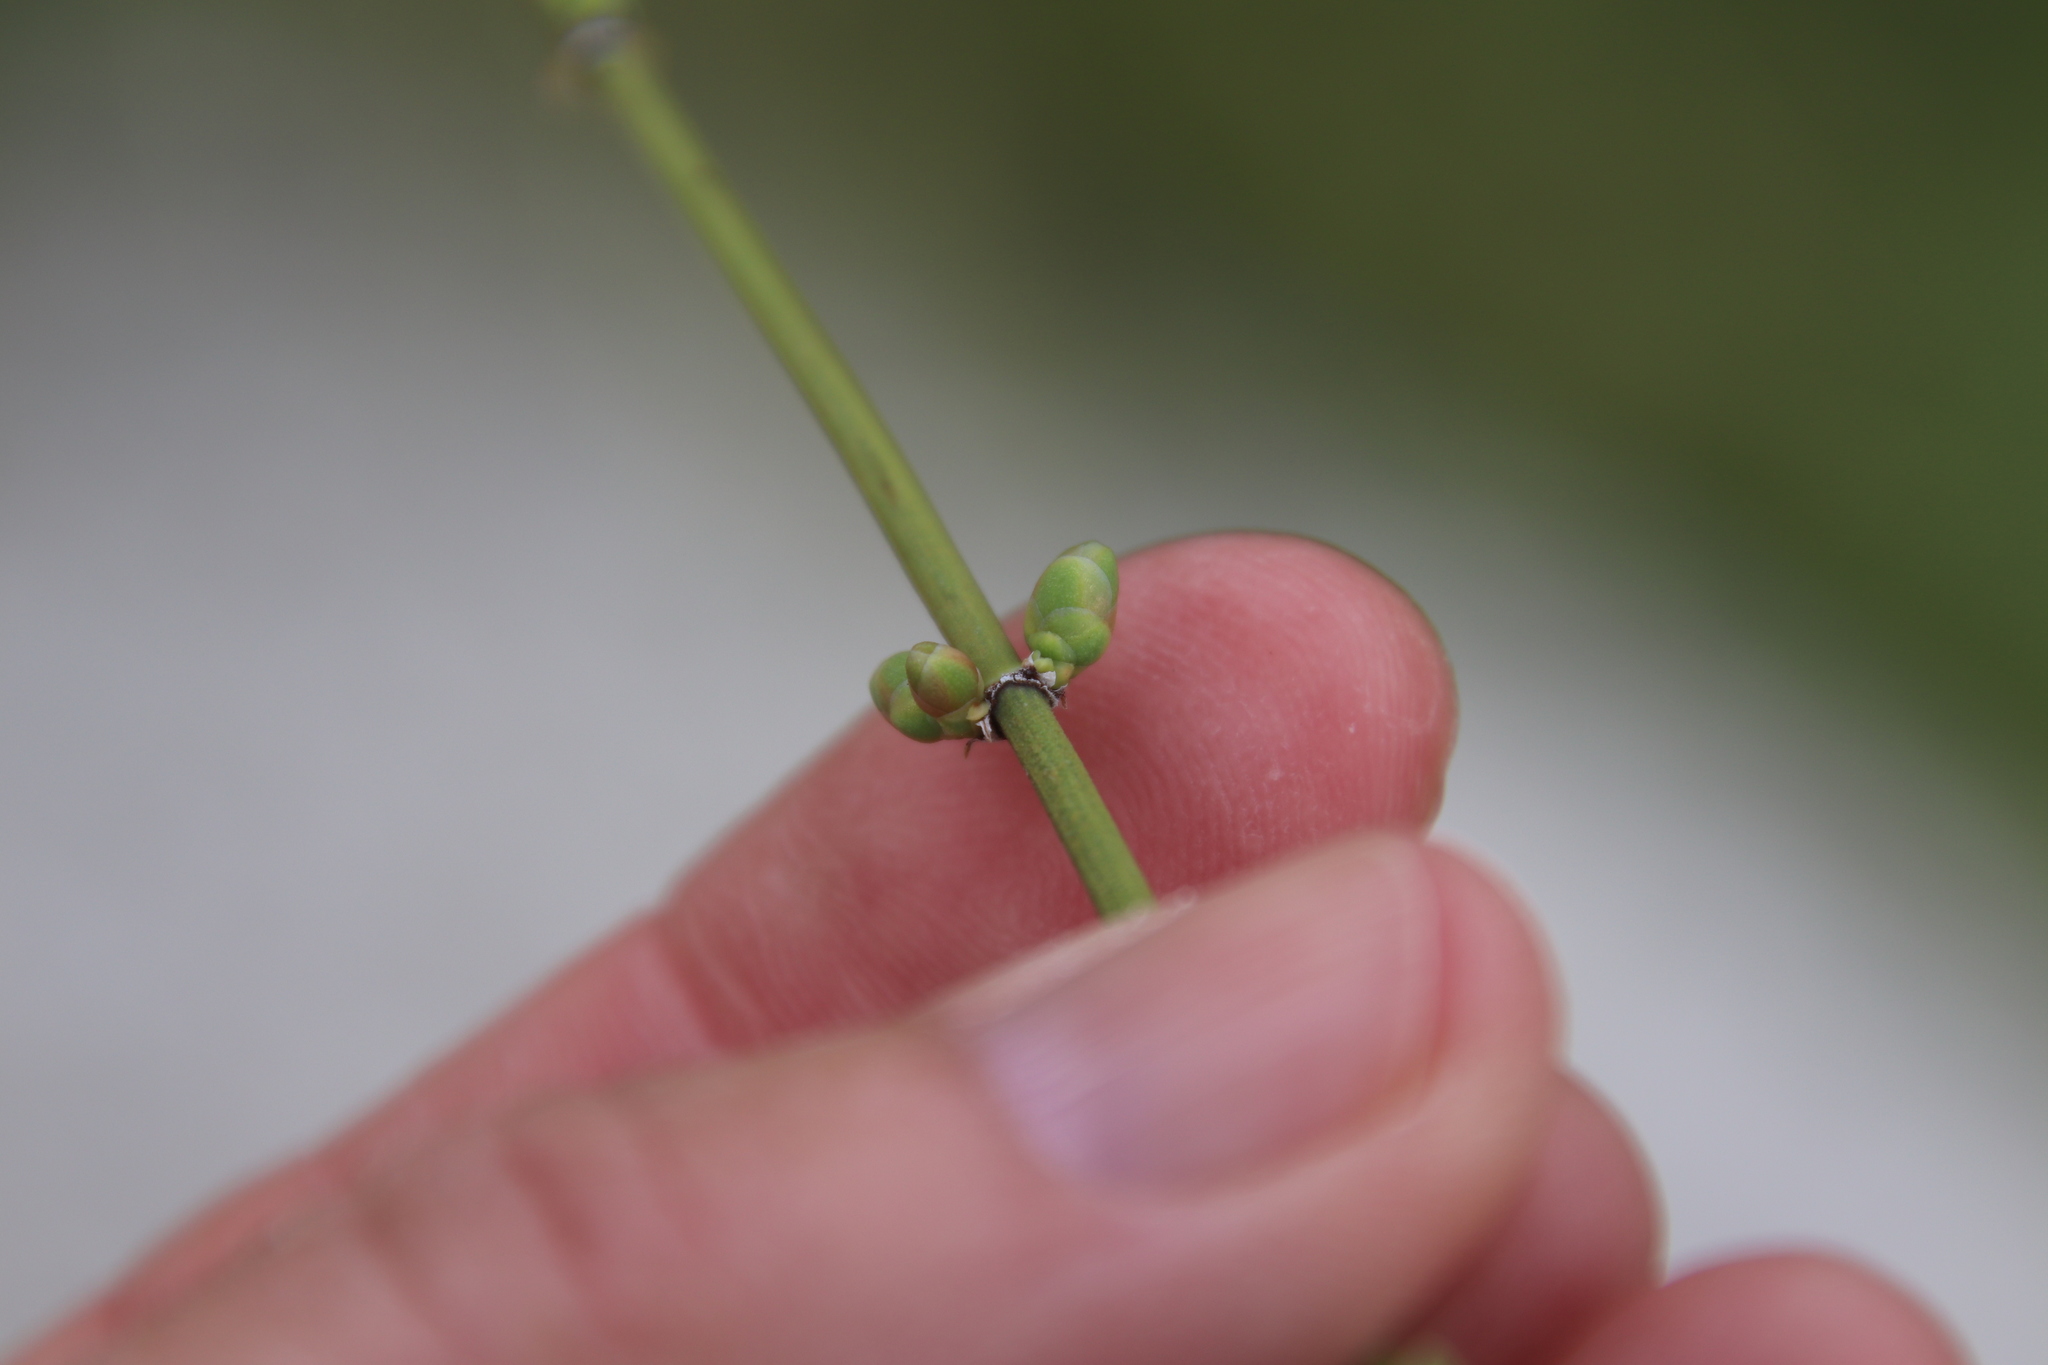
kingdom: Plantae
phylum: Tracheophyta
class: Gnetopsida
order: Ephedrales
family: Ephedraceae
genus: Ephedra
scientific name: Ephedra aspera
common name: Boundary ephedra
